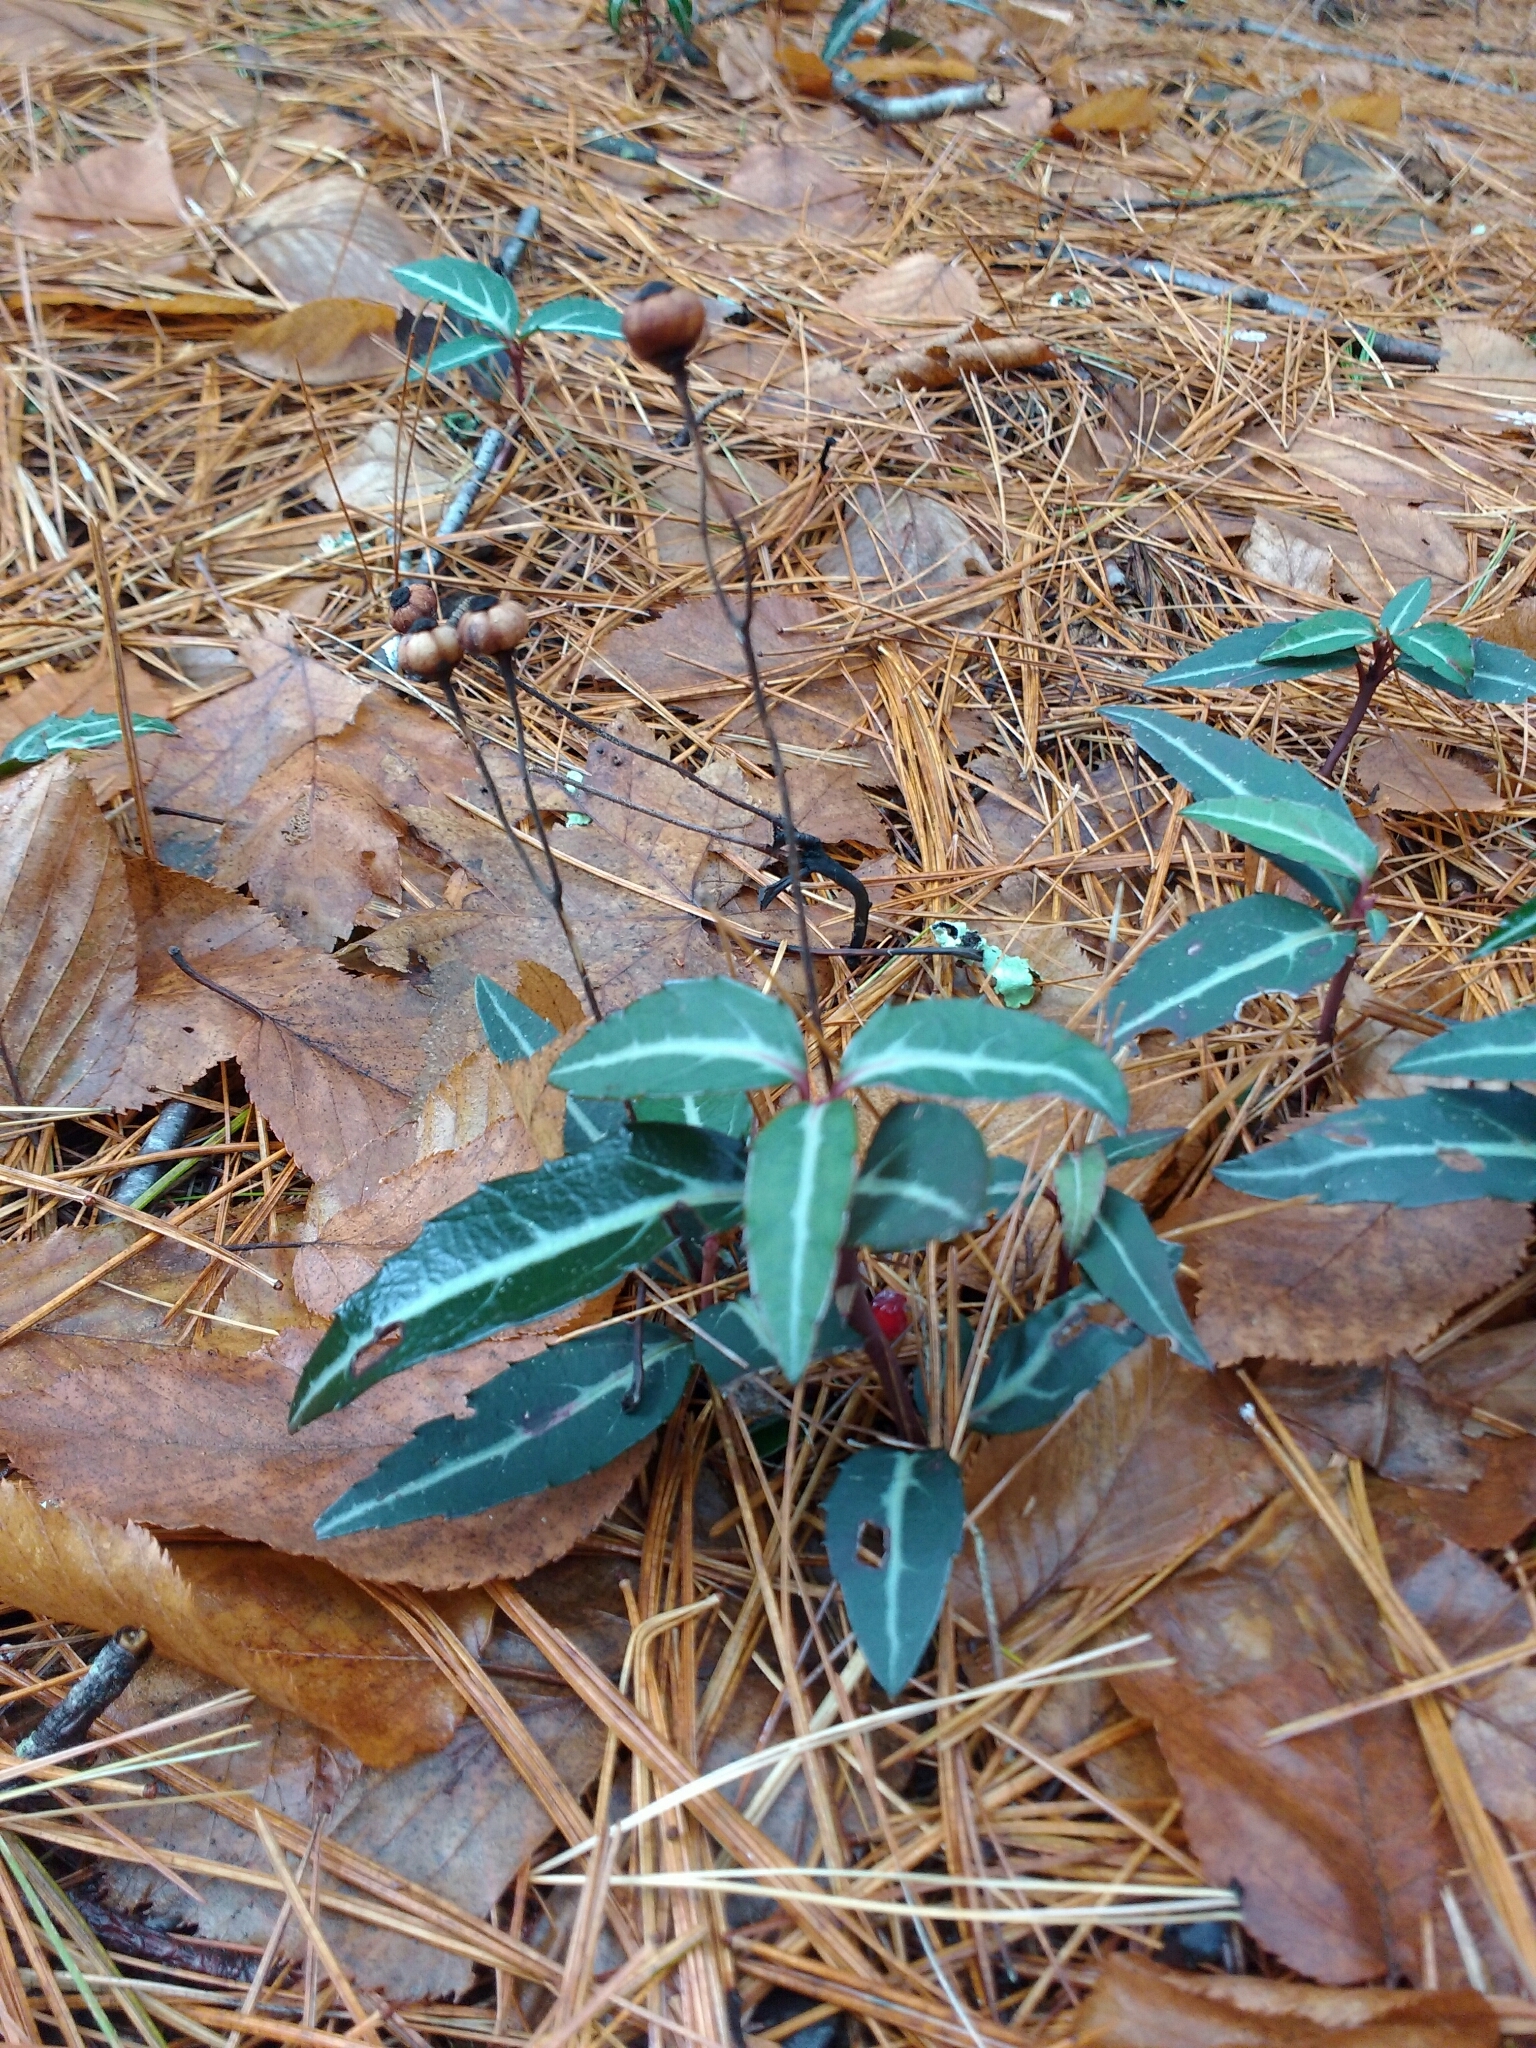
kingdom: Plantae
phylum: Tracheophyta
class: Magnoliopsida
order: Ericales
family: Ericaceae
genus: Chimaphila
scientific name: Chimaphila maculata
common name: Spotted pipsissewa
